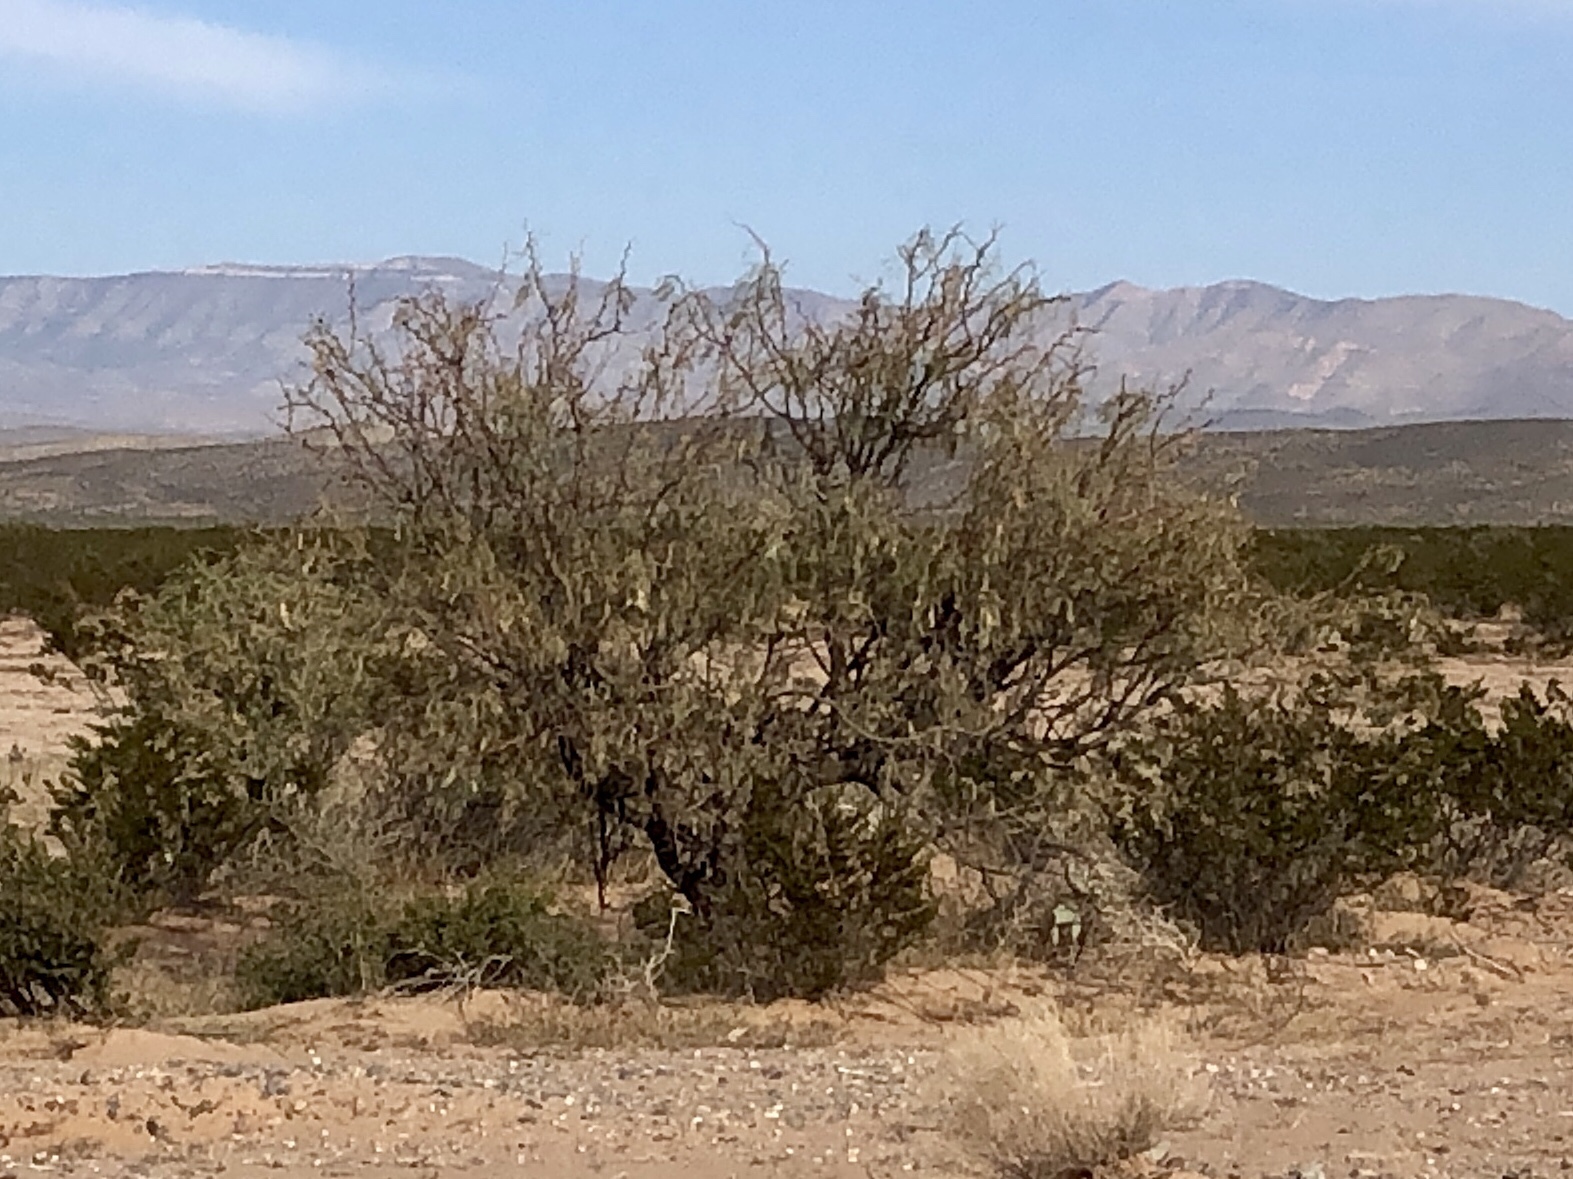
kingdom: Plantae
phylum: Tracheophyta
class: Magnoliopsida
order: Fabales
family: Fabaceae
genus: Prosopis
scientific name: Prosopis glandulosa
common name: Honey mesquite
